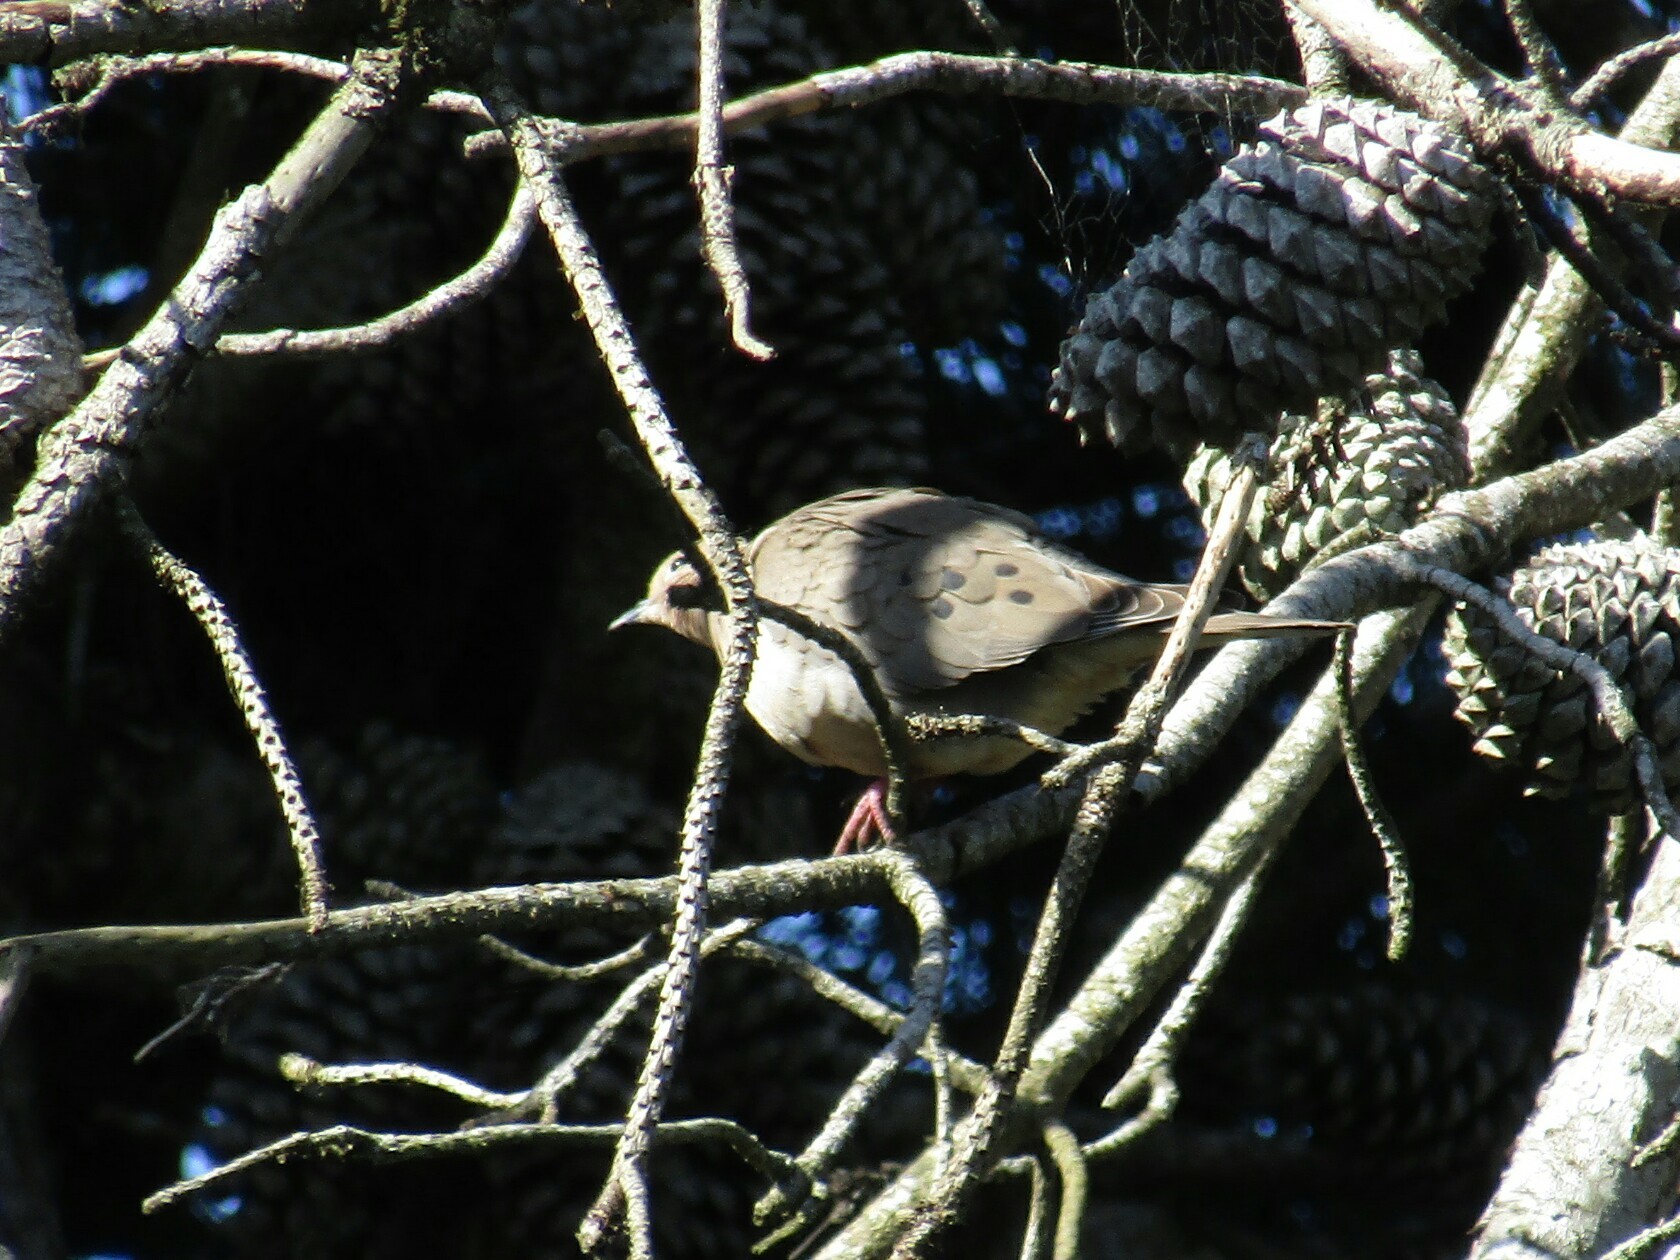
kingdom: Animalia
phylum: Chordata
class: Aves
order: Columbiformes
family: Columbidae
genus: Zenaida
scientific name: Zenaida auriculata
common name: Eared dove
